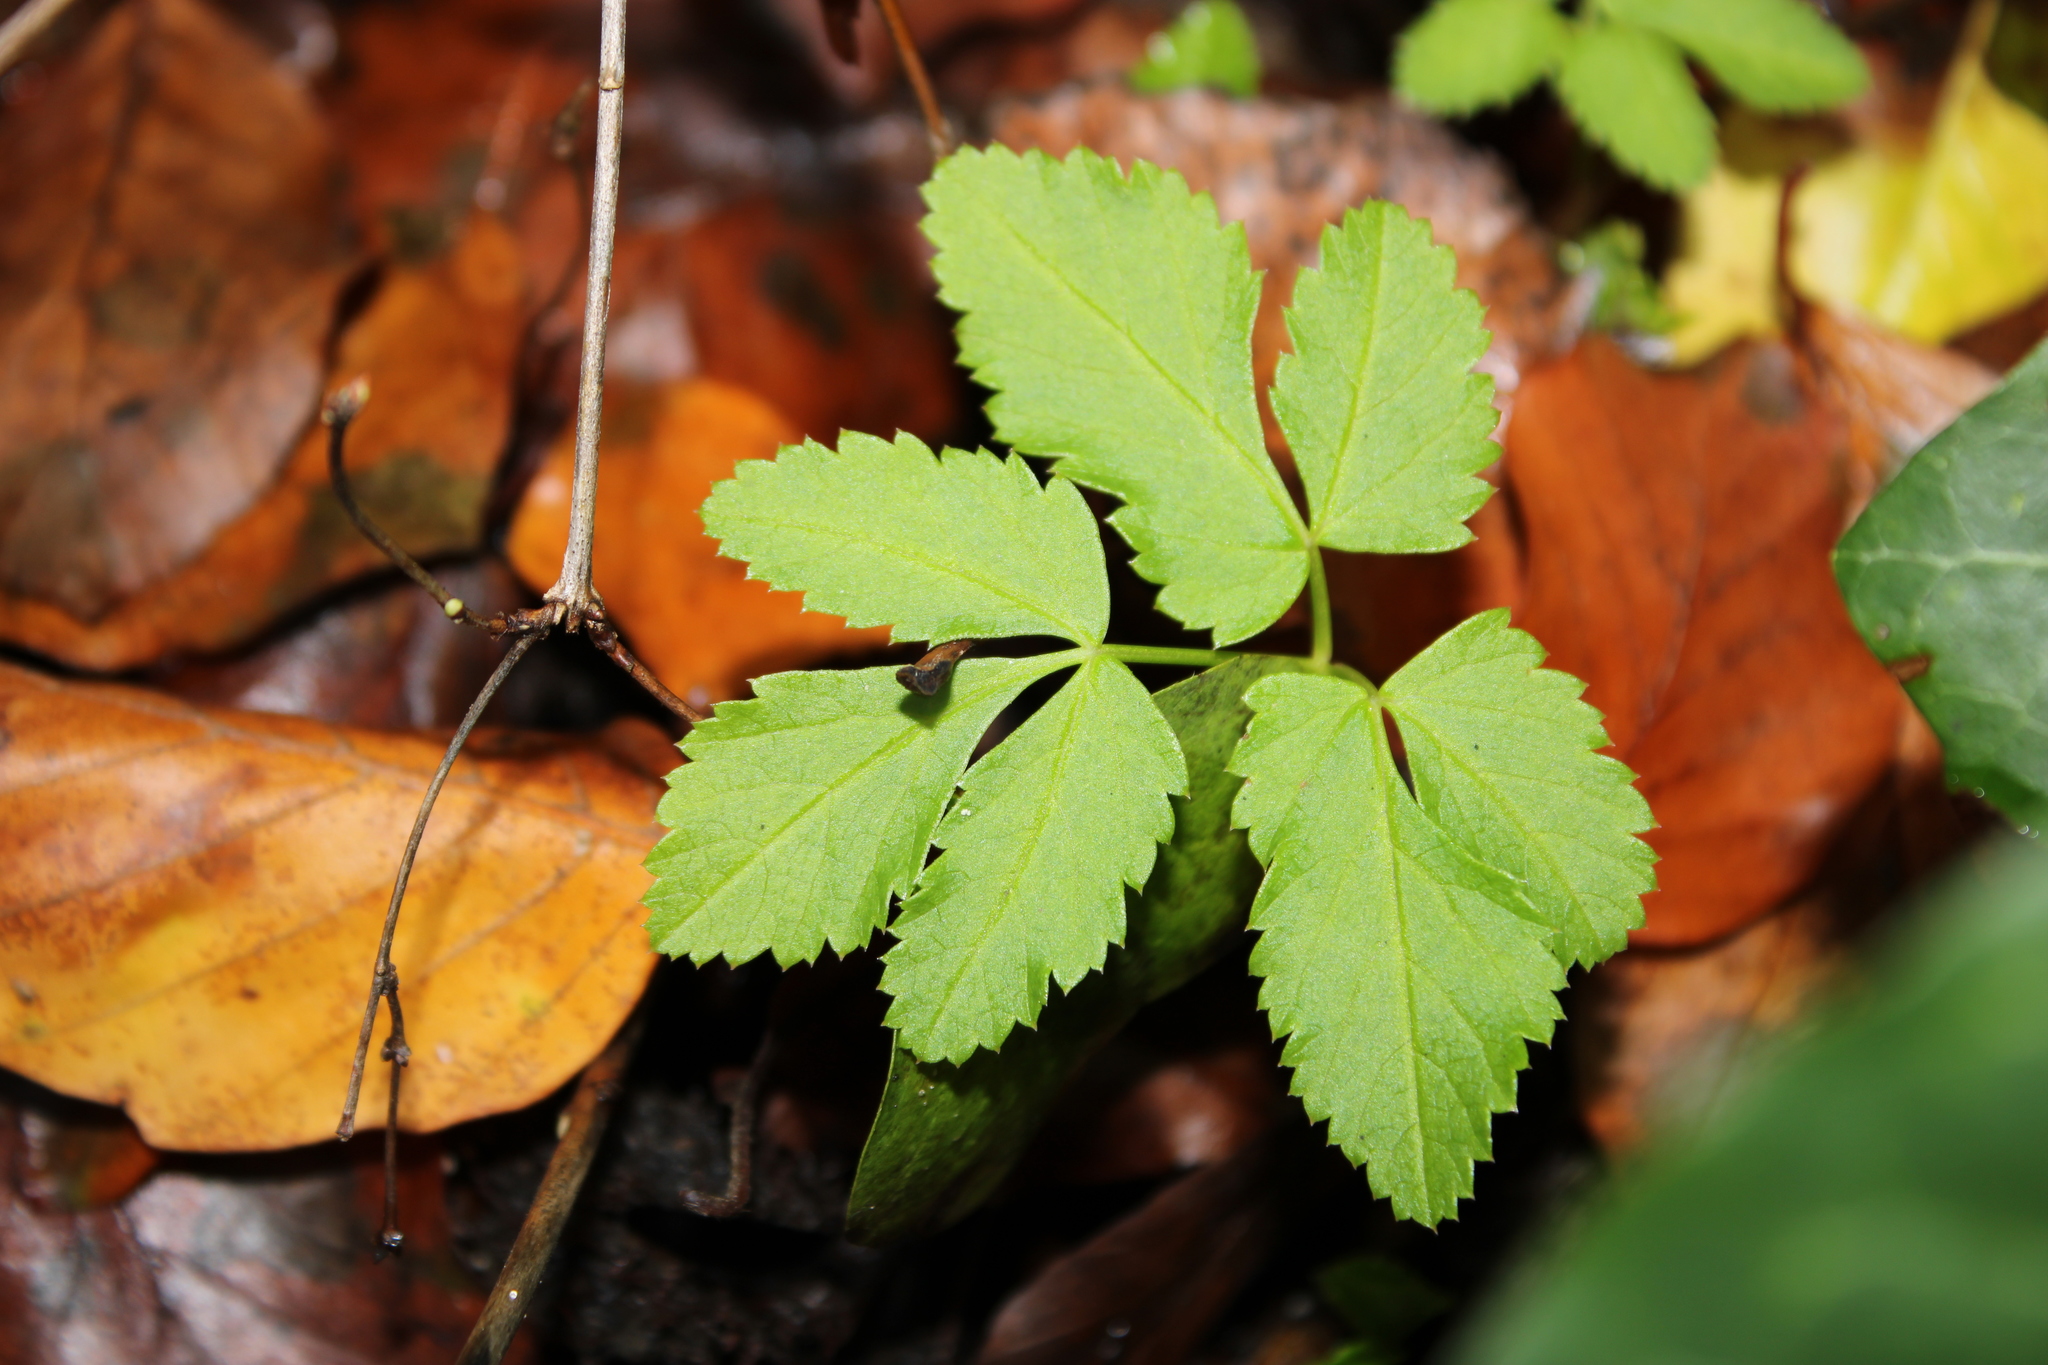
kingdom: Plantae
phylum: Tracheophyta
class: Magnoliopsida
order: Apiales
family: Apiaceae
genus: Aegopodium
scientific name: Aegopodium podagraria
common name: Ground-elder
